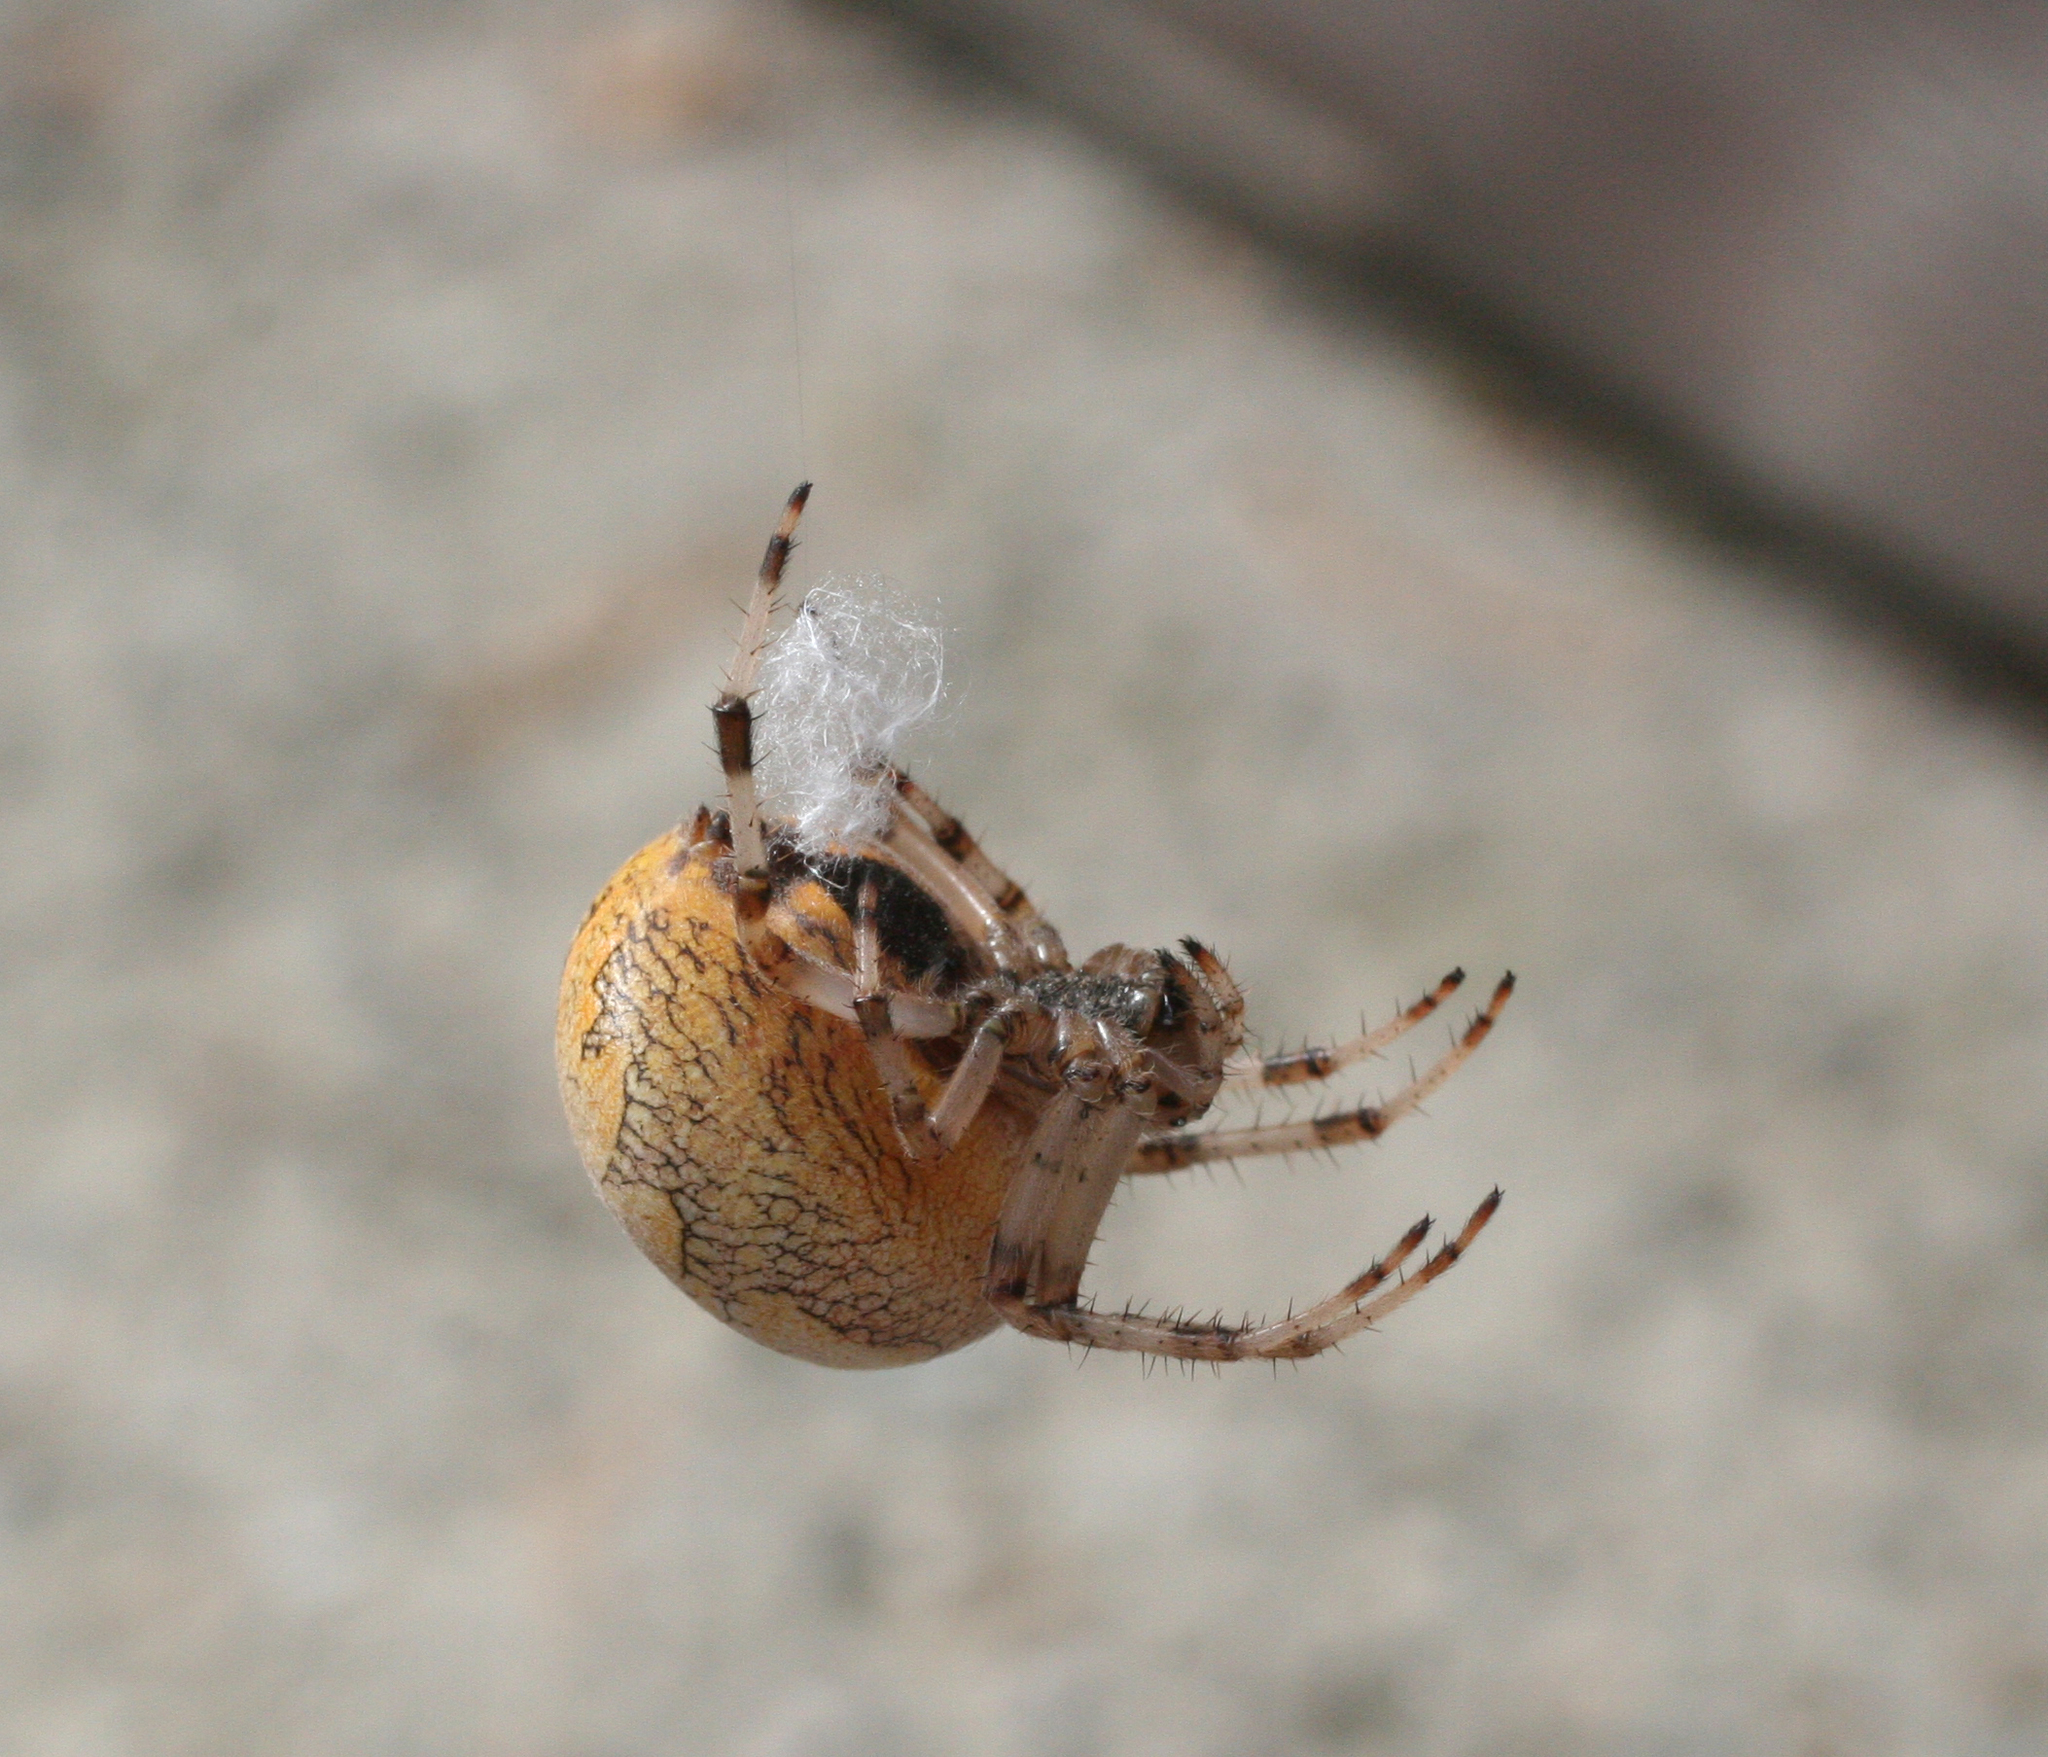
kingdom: Animalia
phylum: Arthropoda
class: Arachnida
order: Araneae
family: Araneidae
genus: Araneus
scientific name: Araneus marmoreus
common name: Marbled orbweaver
